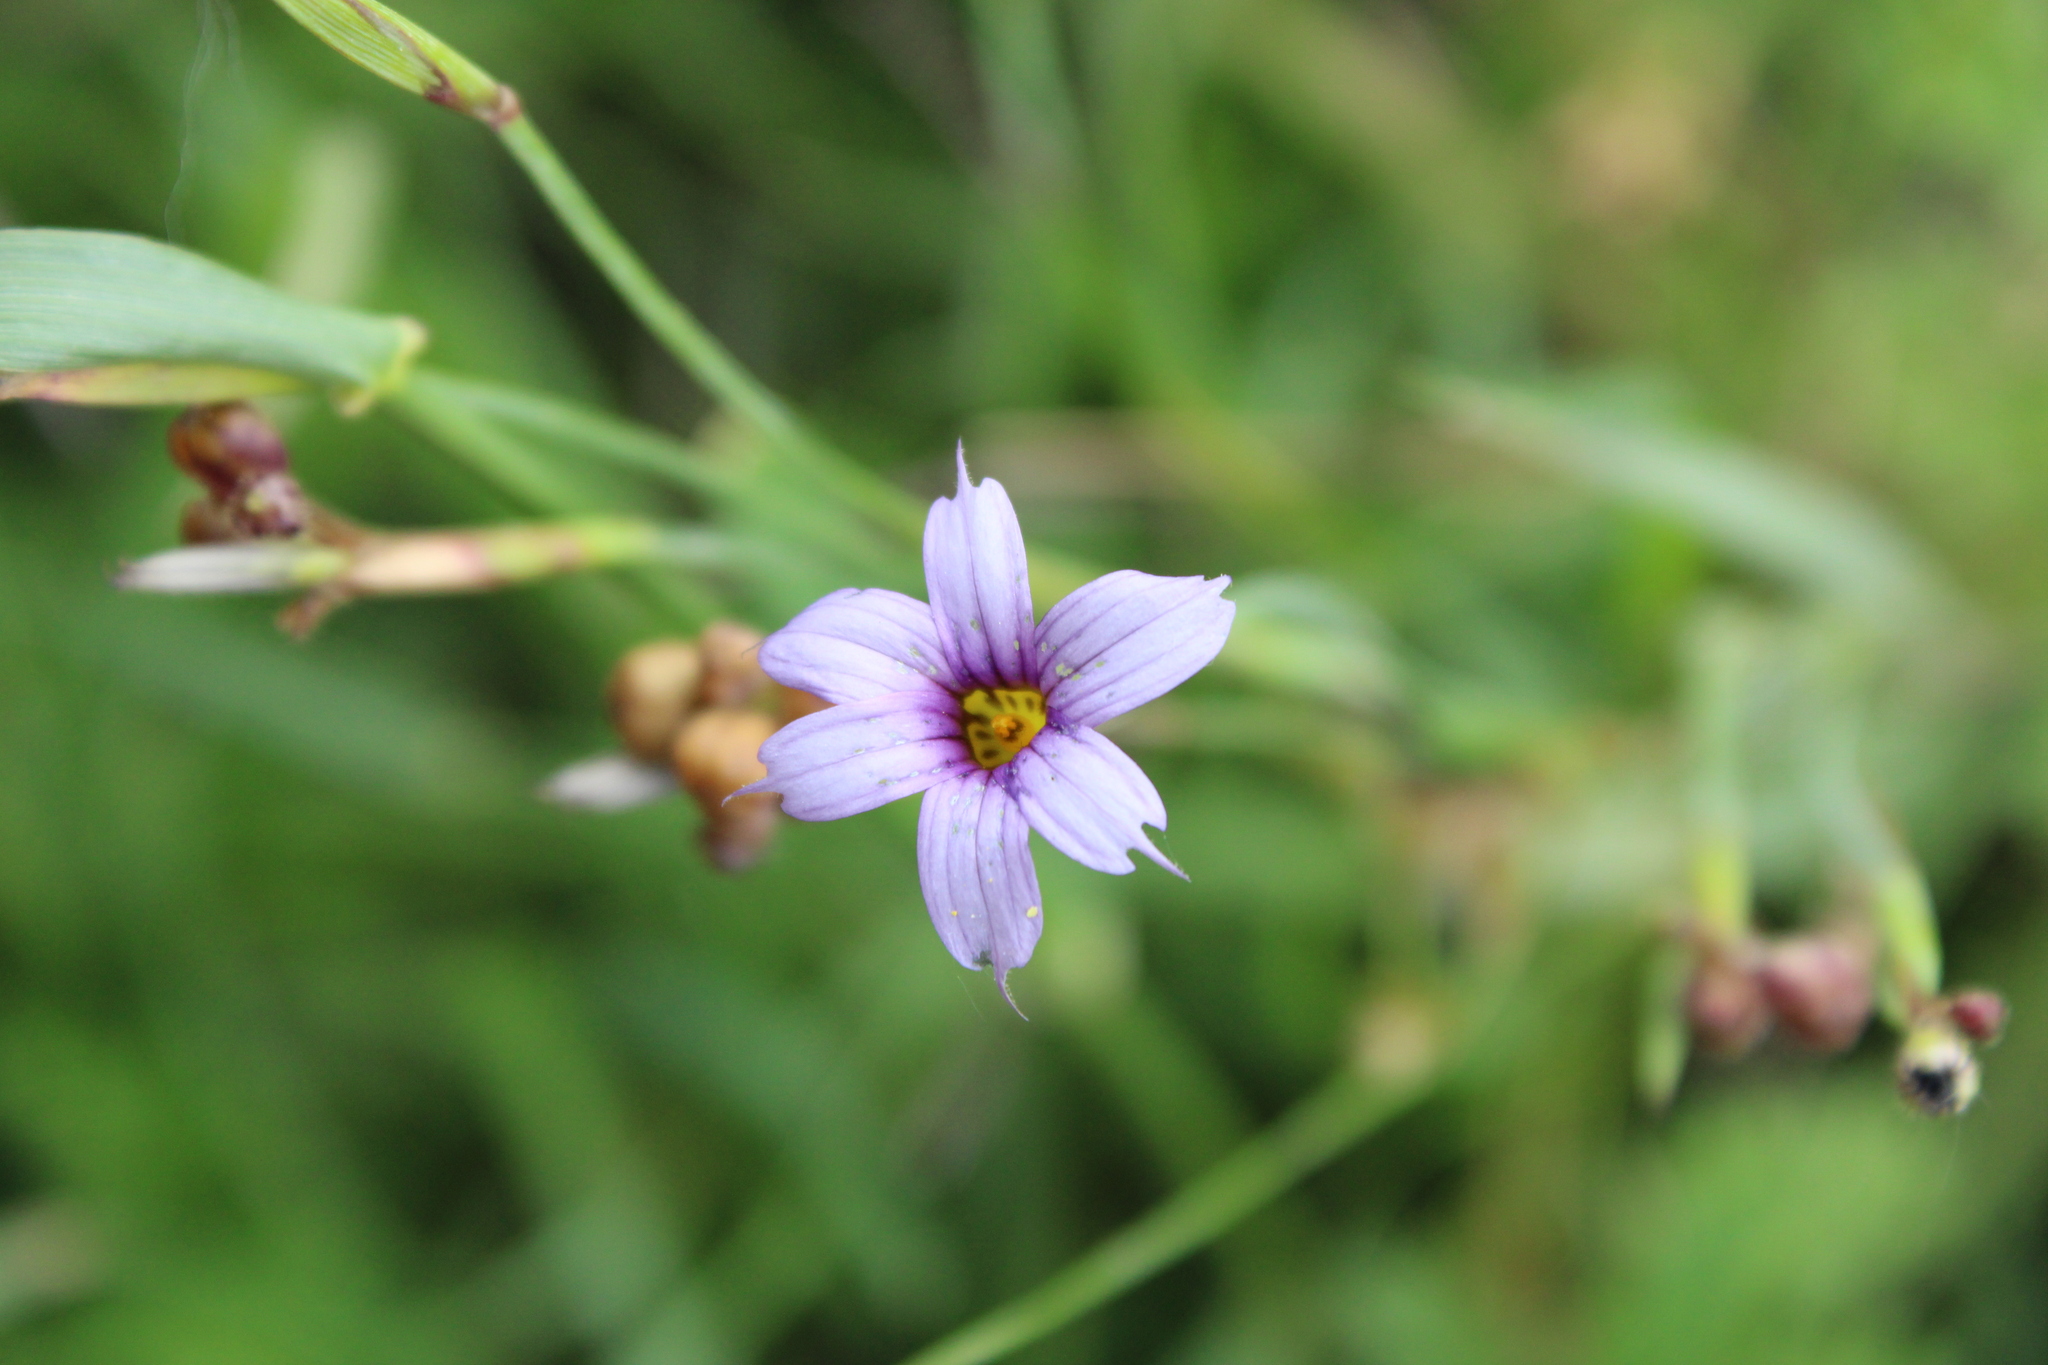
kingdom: Plantae
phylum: Tracheophyta
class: Liliopsida
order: Asparagales
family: Iridaceae
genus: Sisyrinchium
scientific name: Sisyrinchium platense
